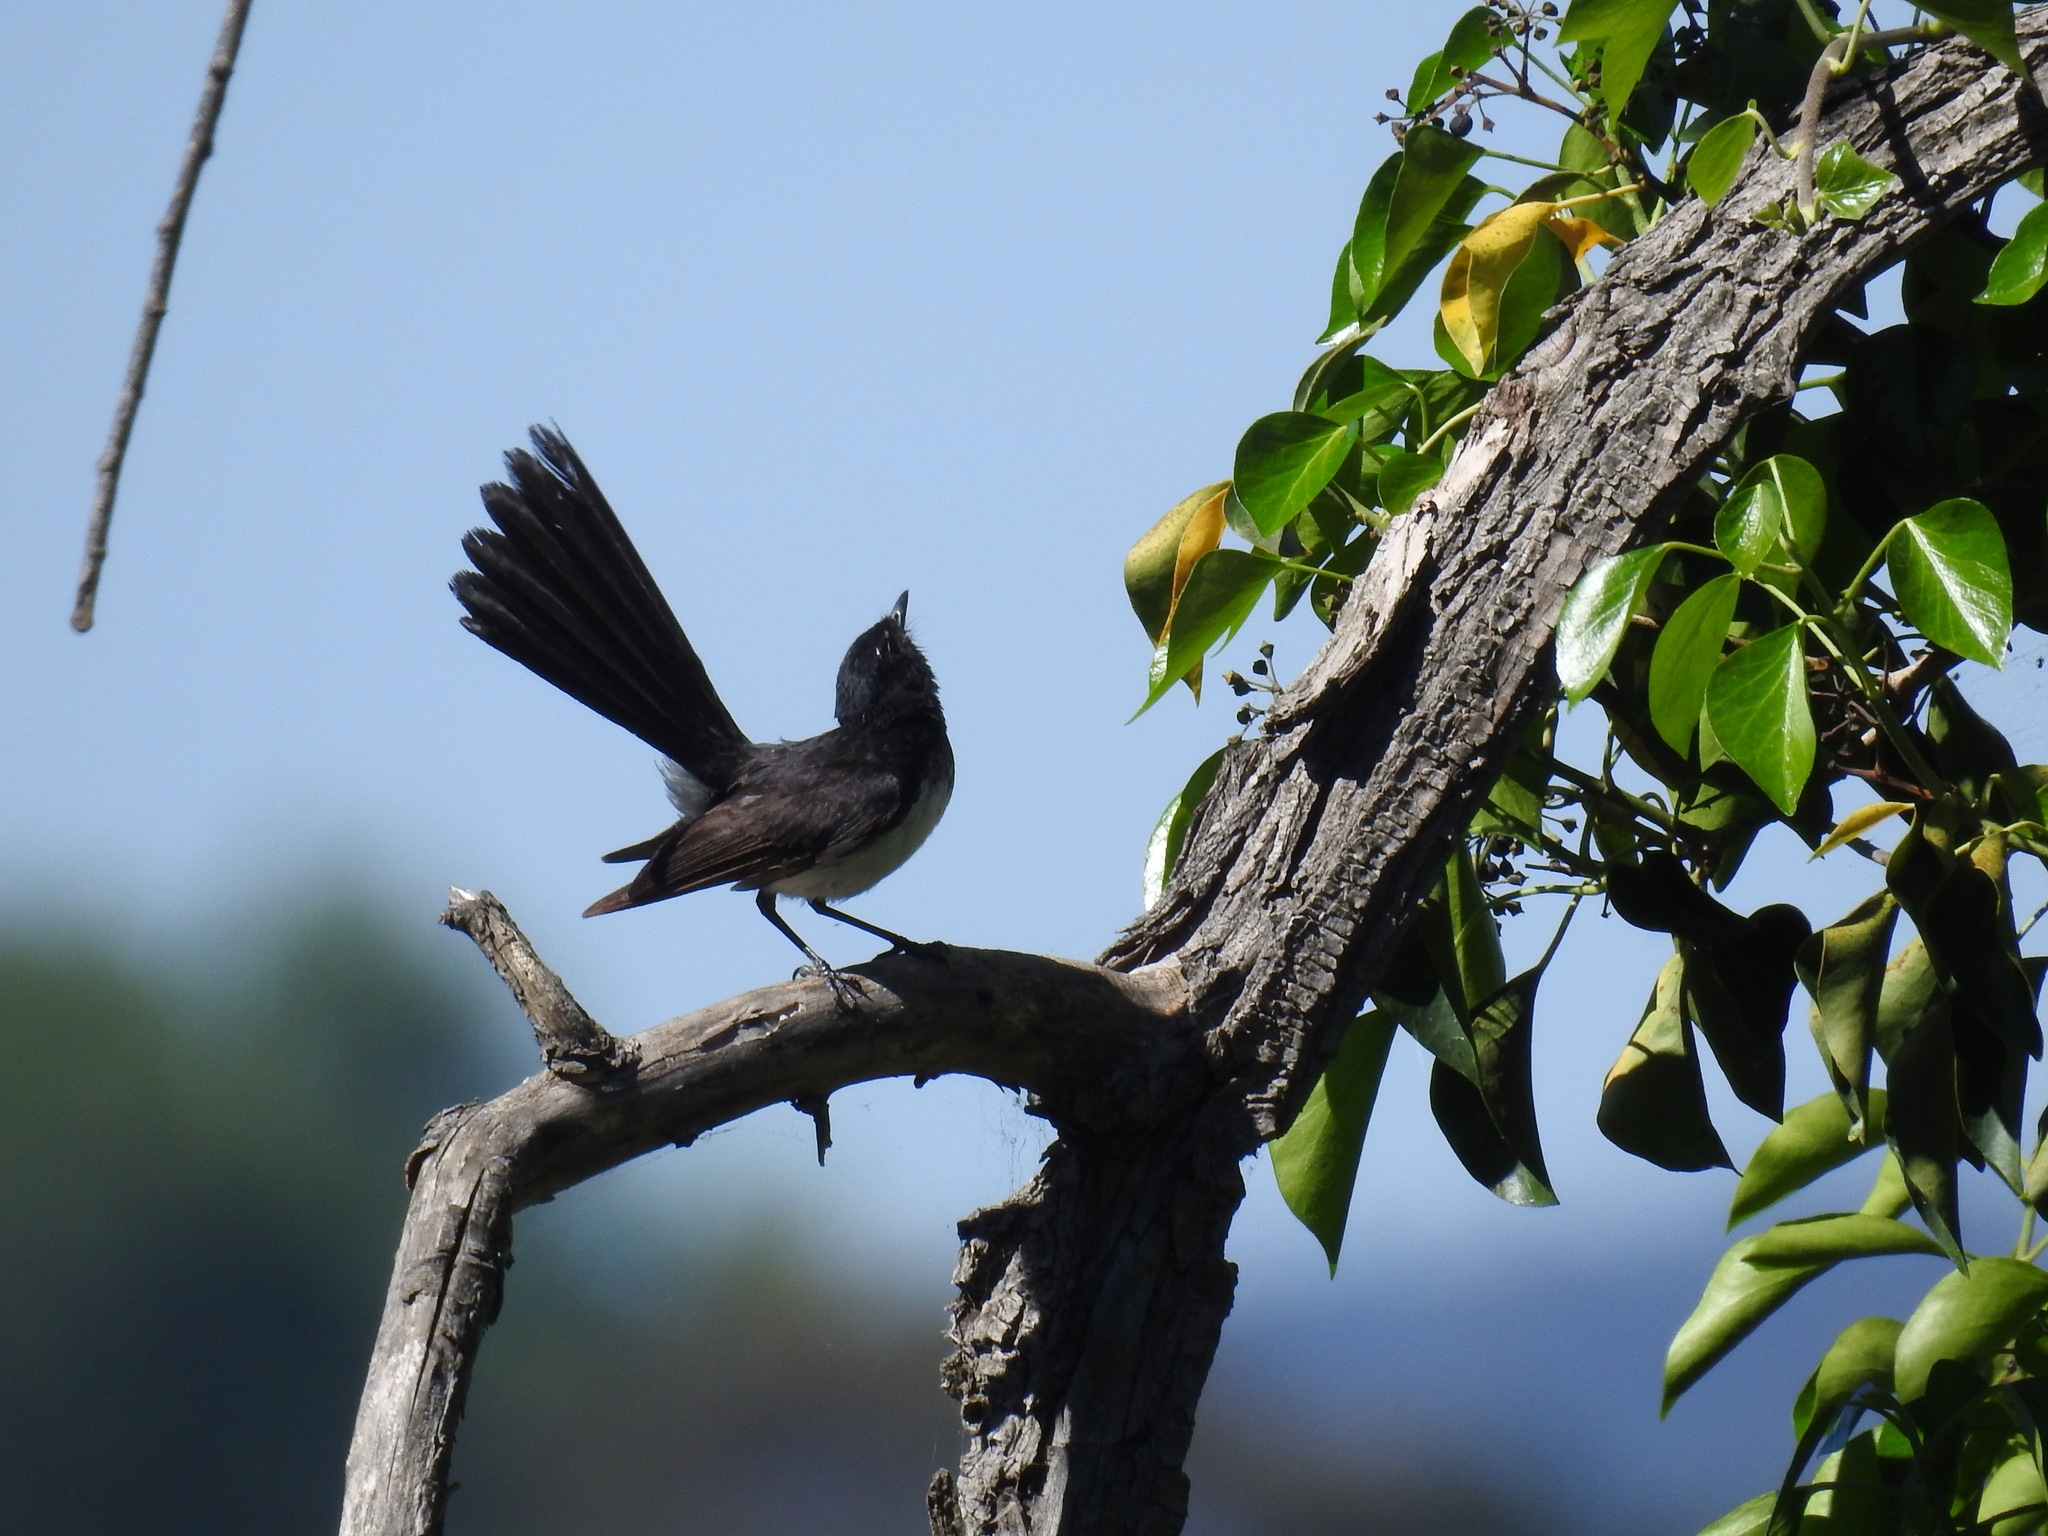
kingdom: Animalia
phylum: Chordata
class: Aves
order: Passeriformes
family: Rhipiduridae
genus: Rhipidura
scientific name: Rhipidura leucophrys
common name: Willie wagtail
